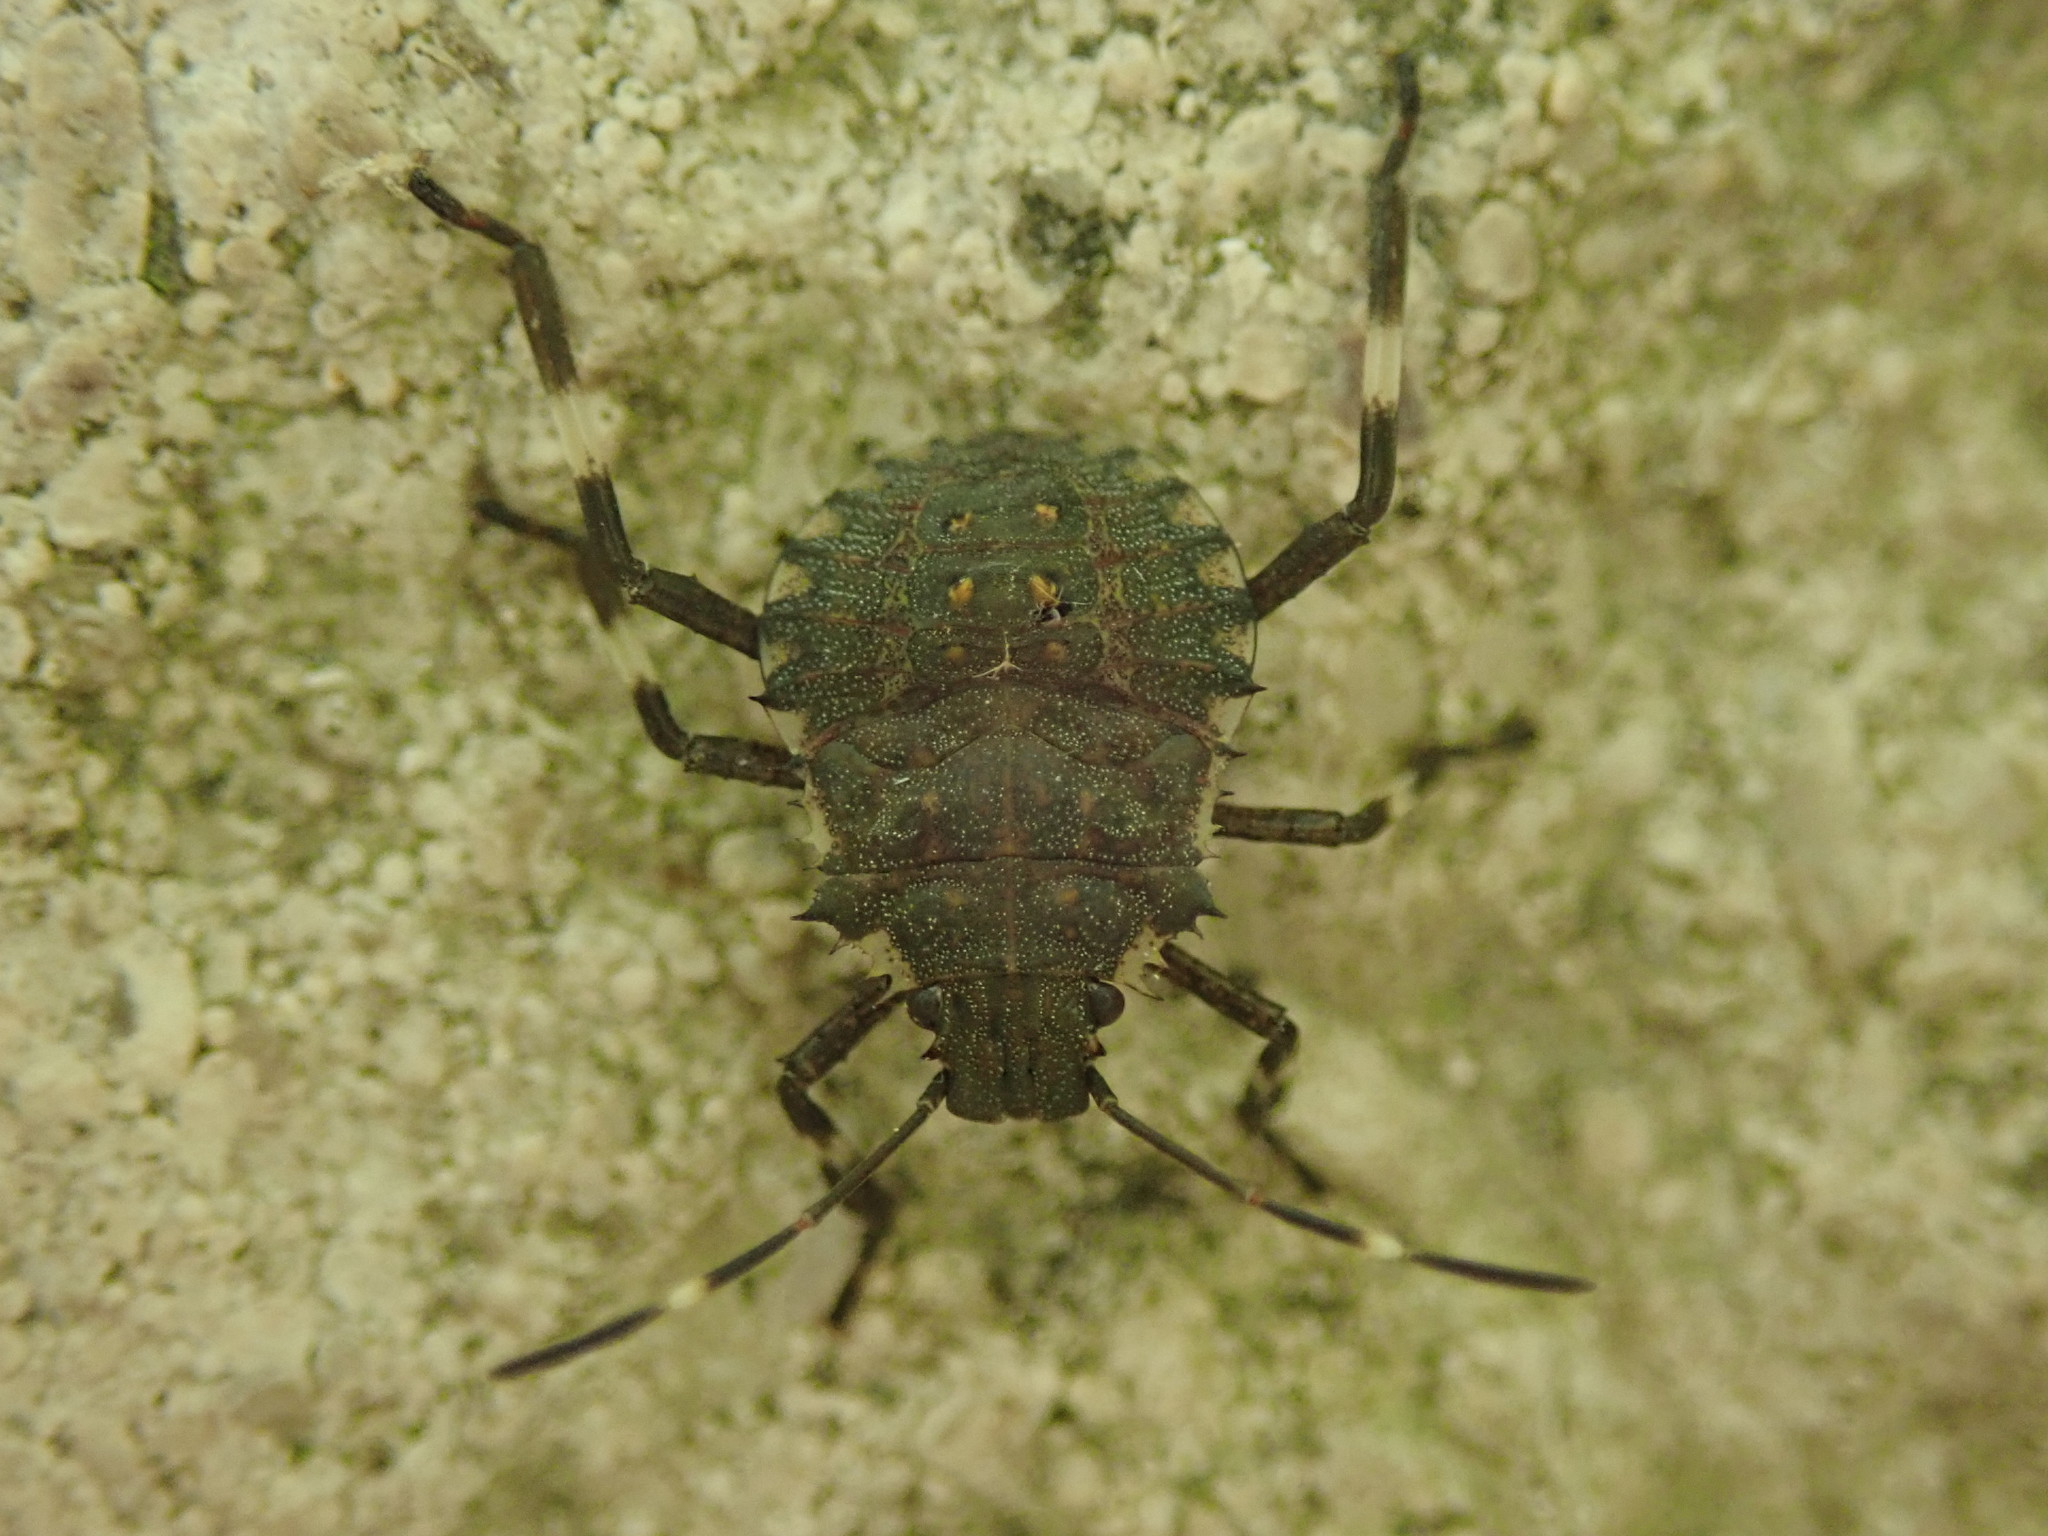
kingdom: Animalia
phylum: Arthropoda
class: Insecta
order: Hemiptera
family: Pentatomidae
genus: Halyomorpha
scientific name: Halyomorpha halys
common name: Brown marmorated stink bug
